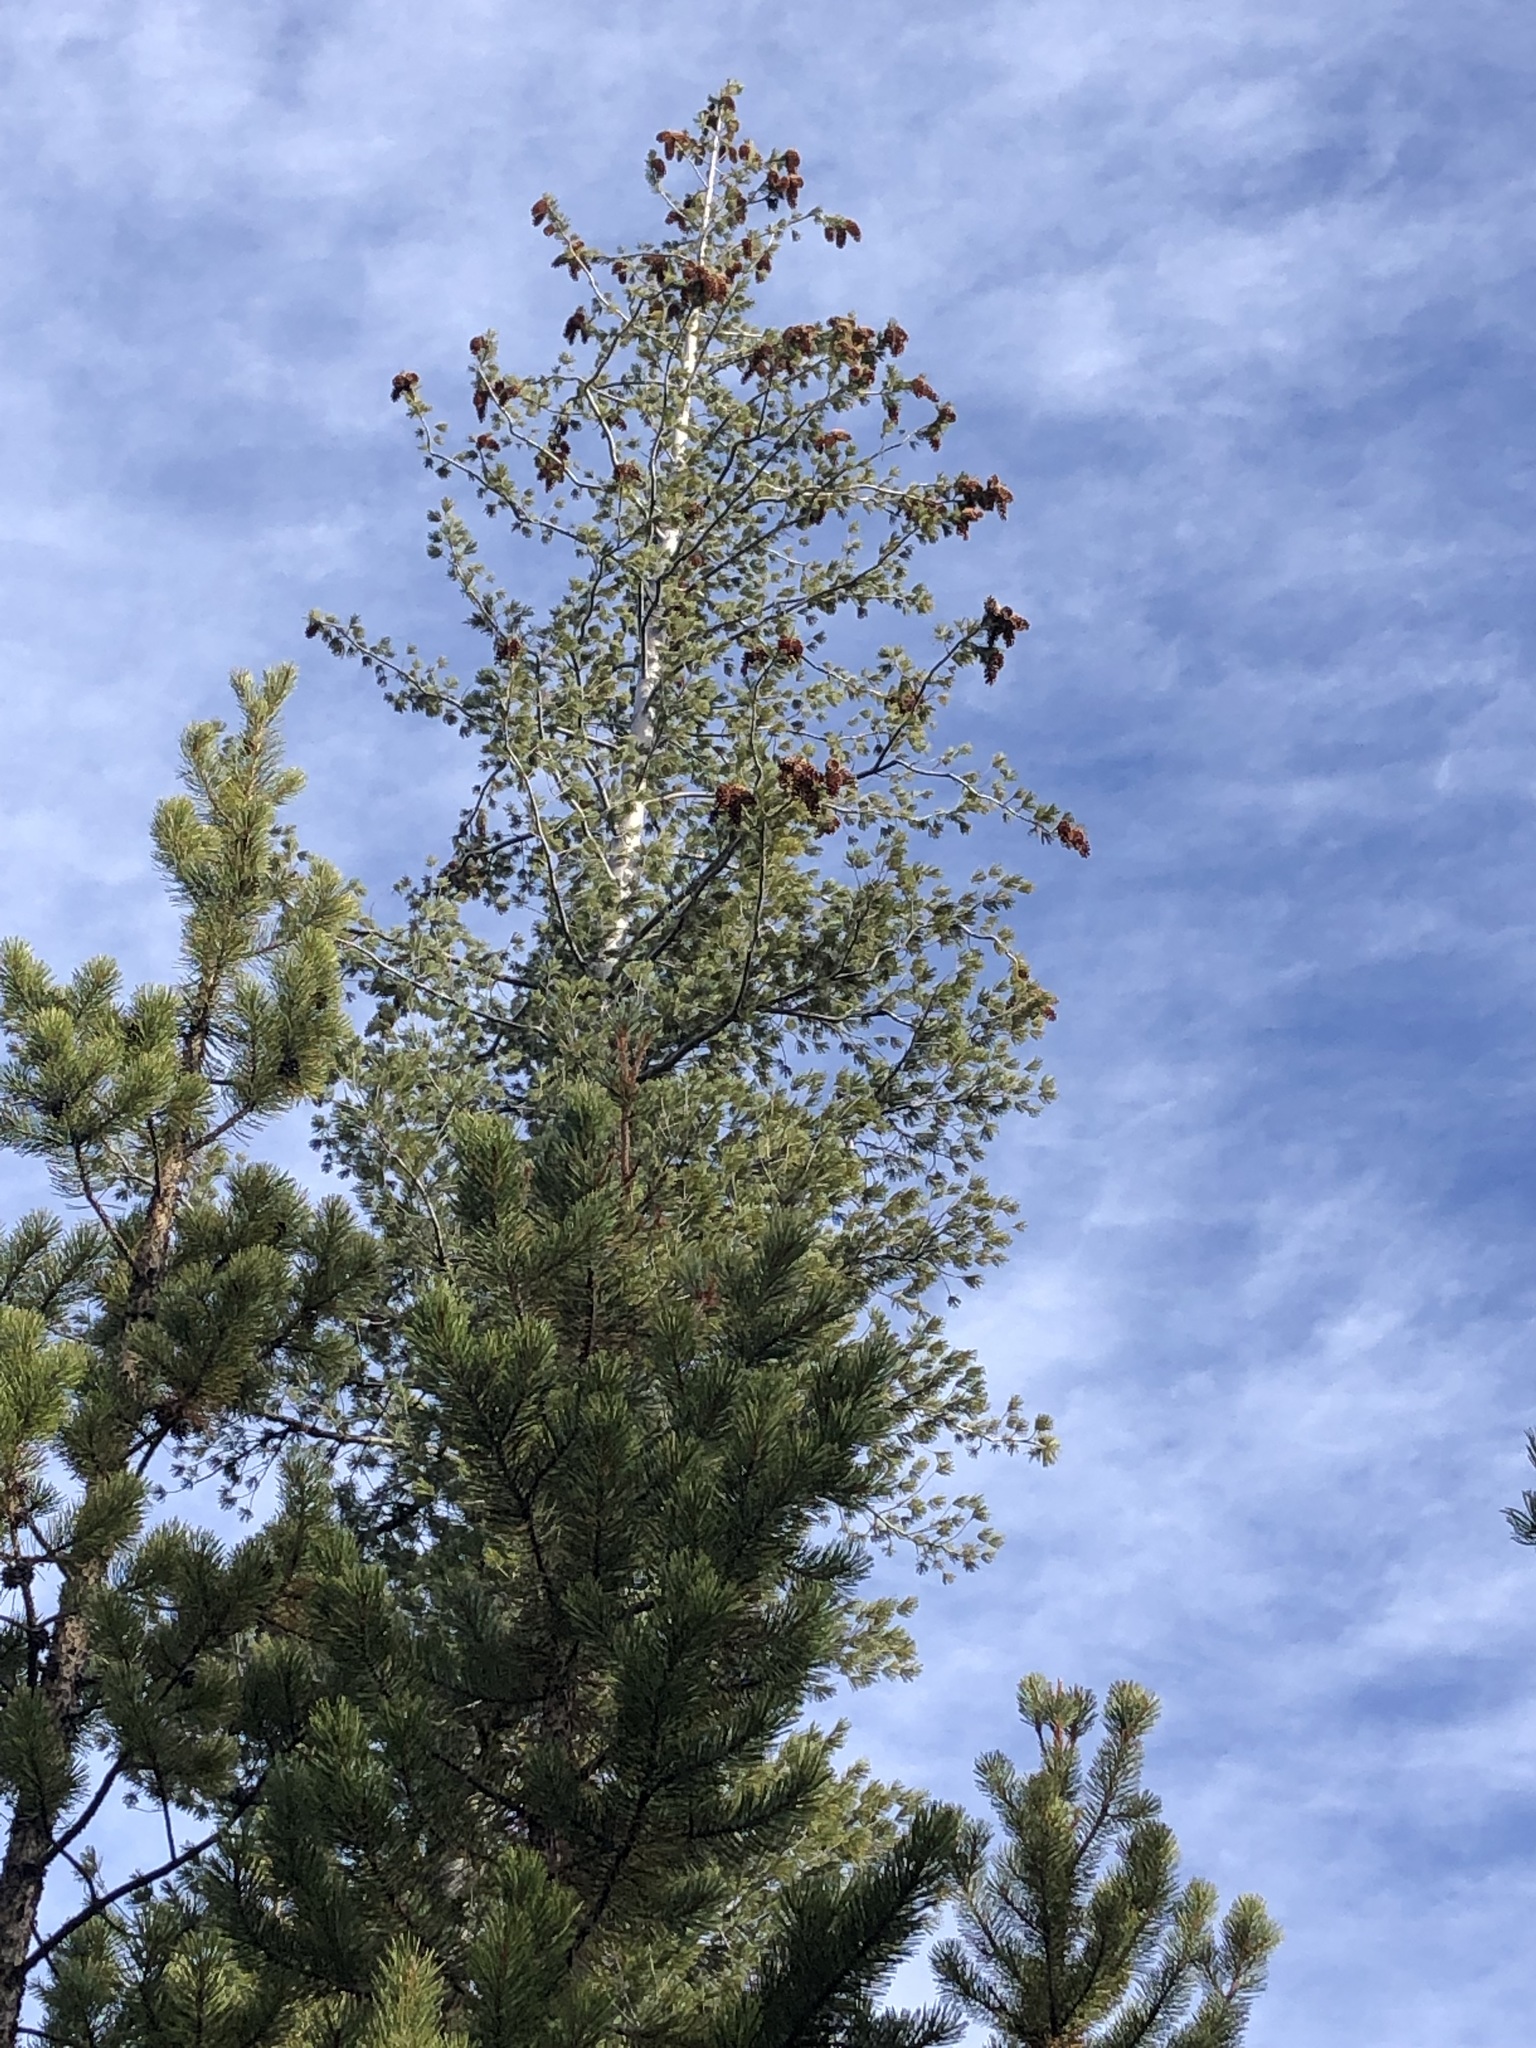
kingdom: Plantae
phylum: Tracheophyta
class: Pinopsida
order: Pinales
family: Pinaceae
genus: Pinus
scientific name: Pinus monticola
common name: Western white pine
